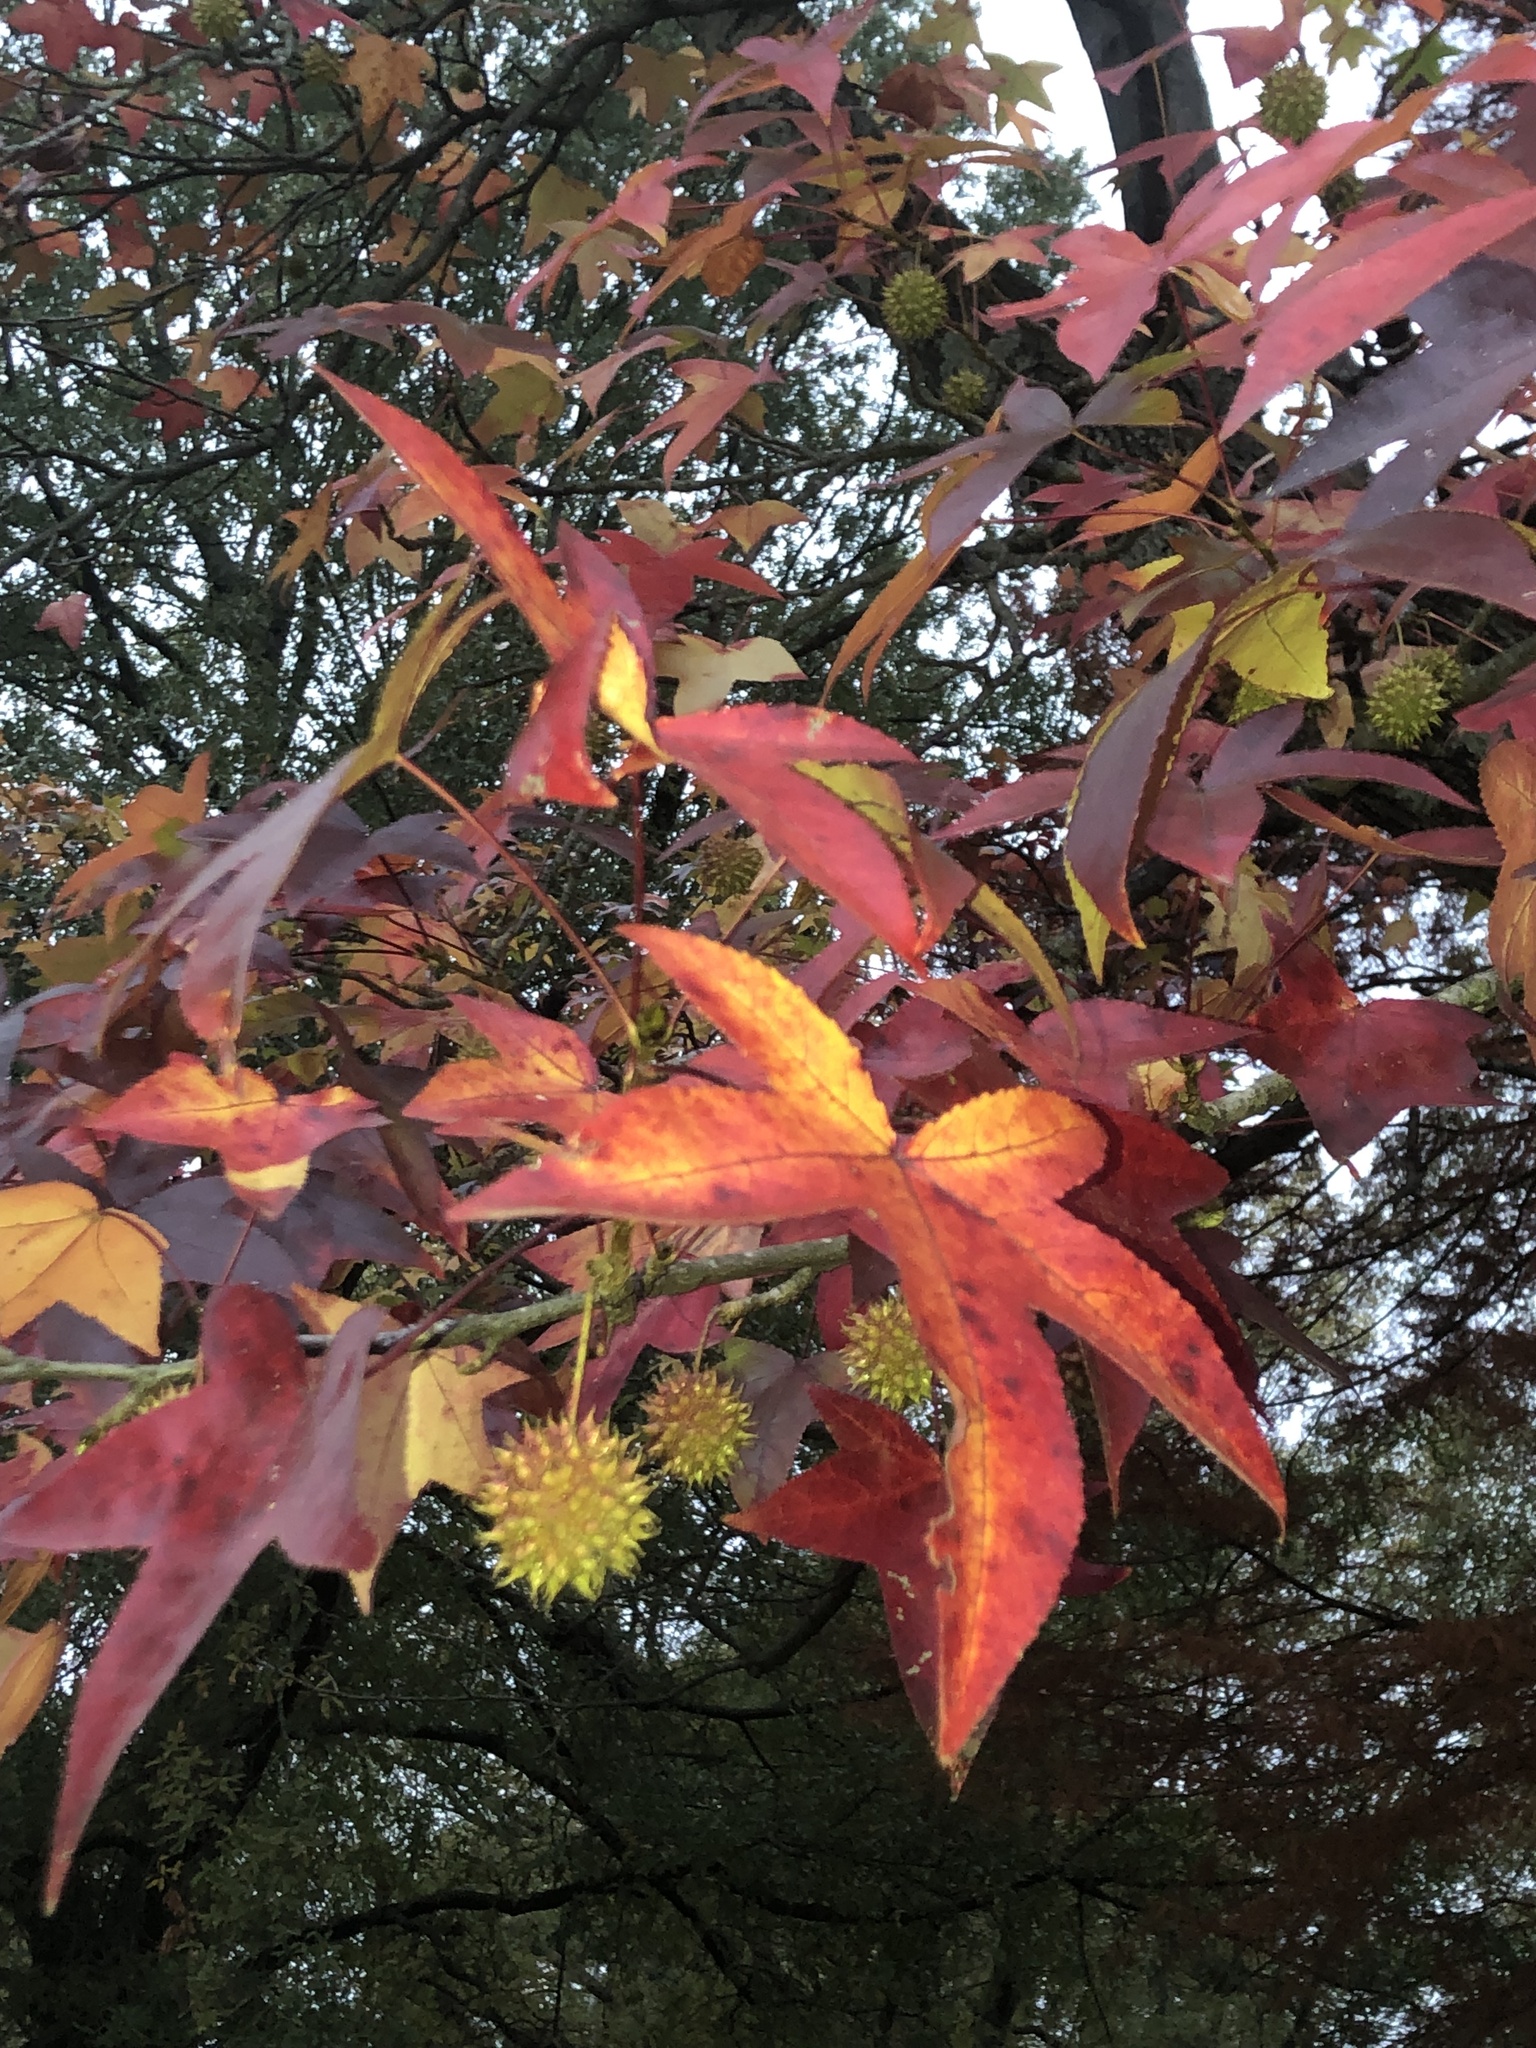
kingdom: Plantae
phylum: Tracheophyta
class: Magnoliopsida
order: Saxifragales
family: Altingiaceae
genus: Liquidambar
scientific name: Liquidambar styraciflua
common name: Sweet gum
